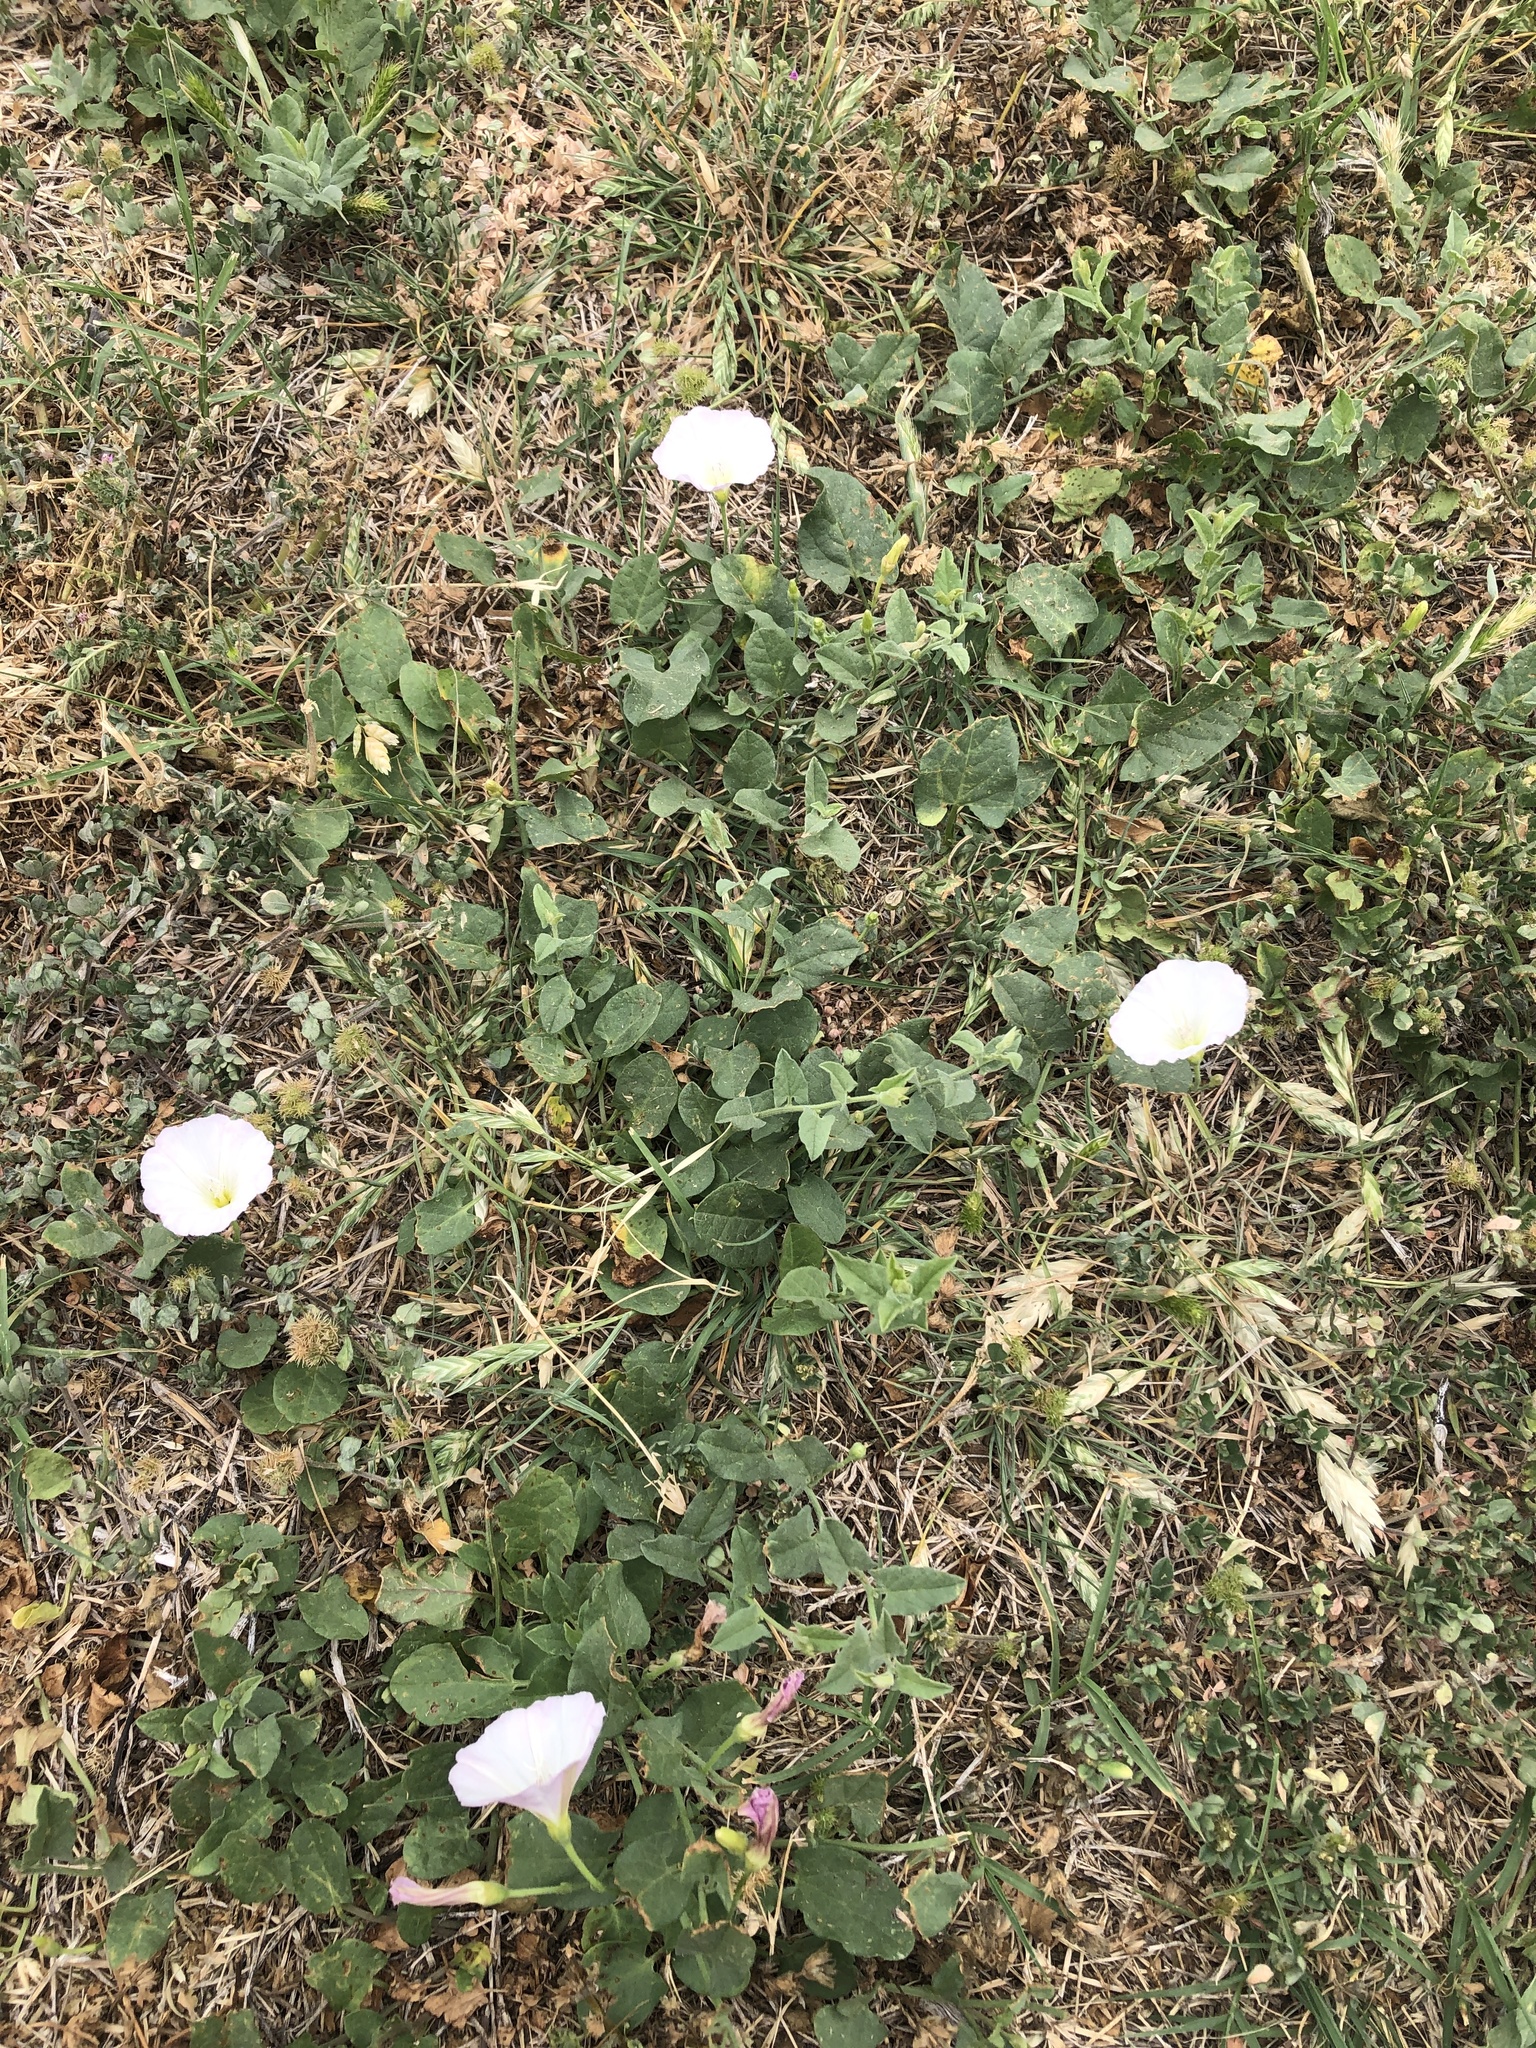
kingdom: Plantae
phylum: Tracheophyta
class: Magnoliopsida
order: Solanales
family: Convolvulaceae
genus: Convolvulus
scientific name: Convolvulus arvensis
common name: Field bindweed
